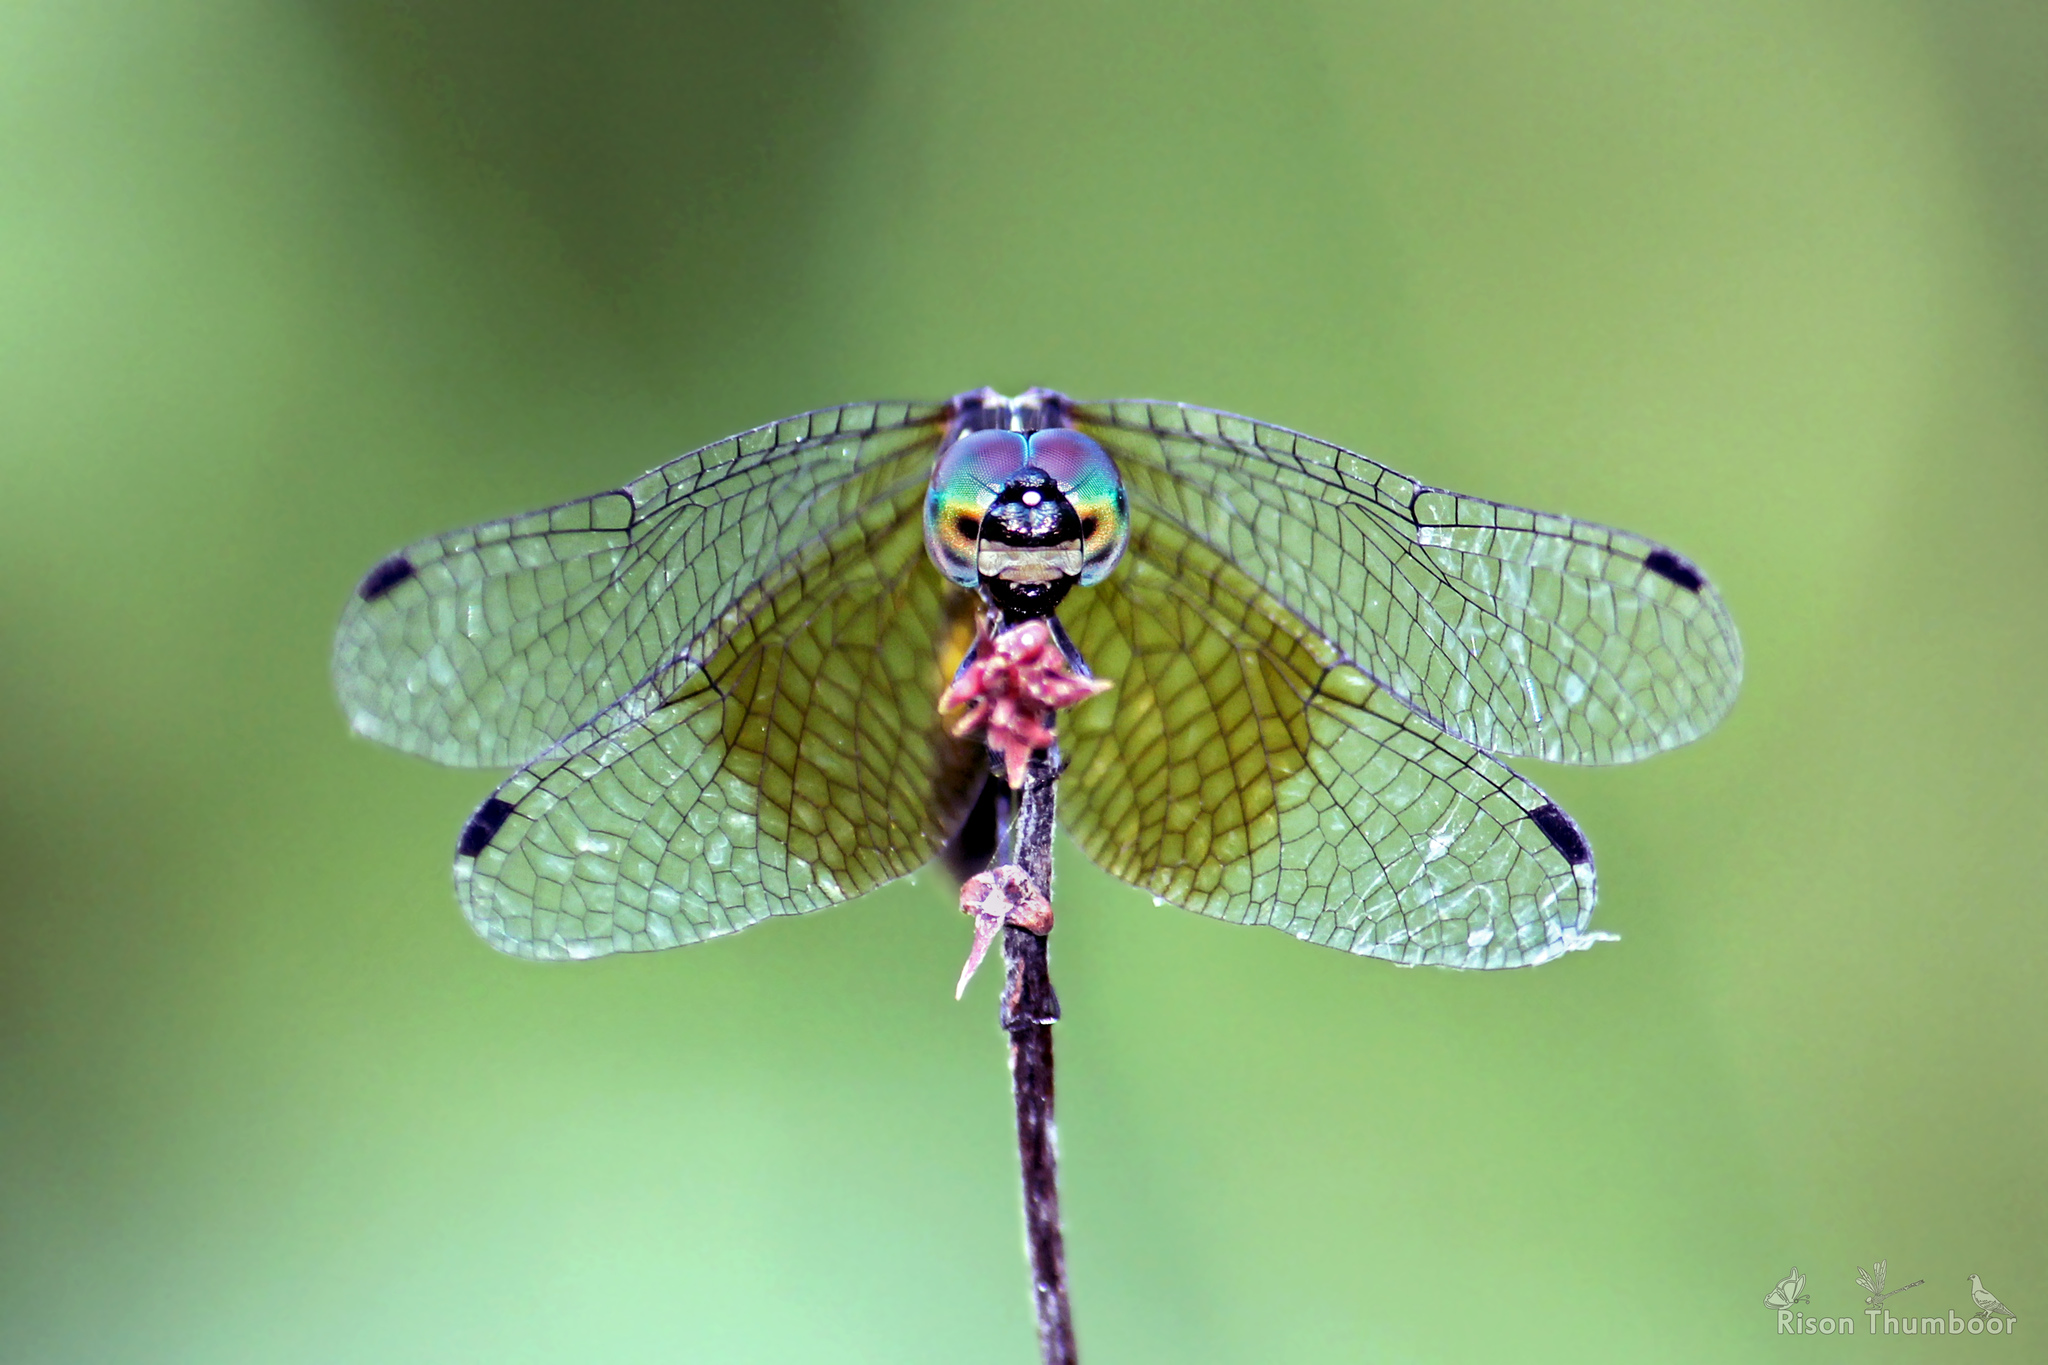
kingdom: Animalia
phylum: Arthropoda
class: Insecta
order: Odonata
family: Libellulidae
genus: Tetrathemis
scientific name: Tetrathemis platyptera
